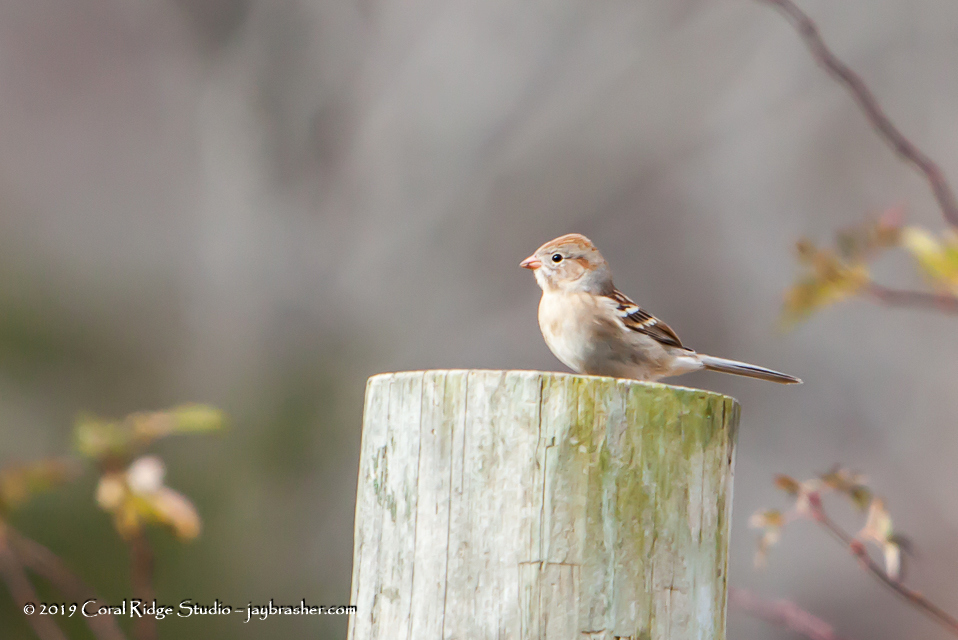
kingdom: Animalia
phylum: Chordata
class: Aves
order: Passeriformes
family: Passerellidae
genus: Spizella
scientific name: Spizella pusilla
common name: Field sparrow
